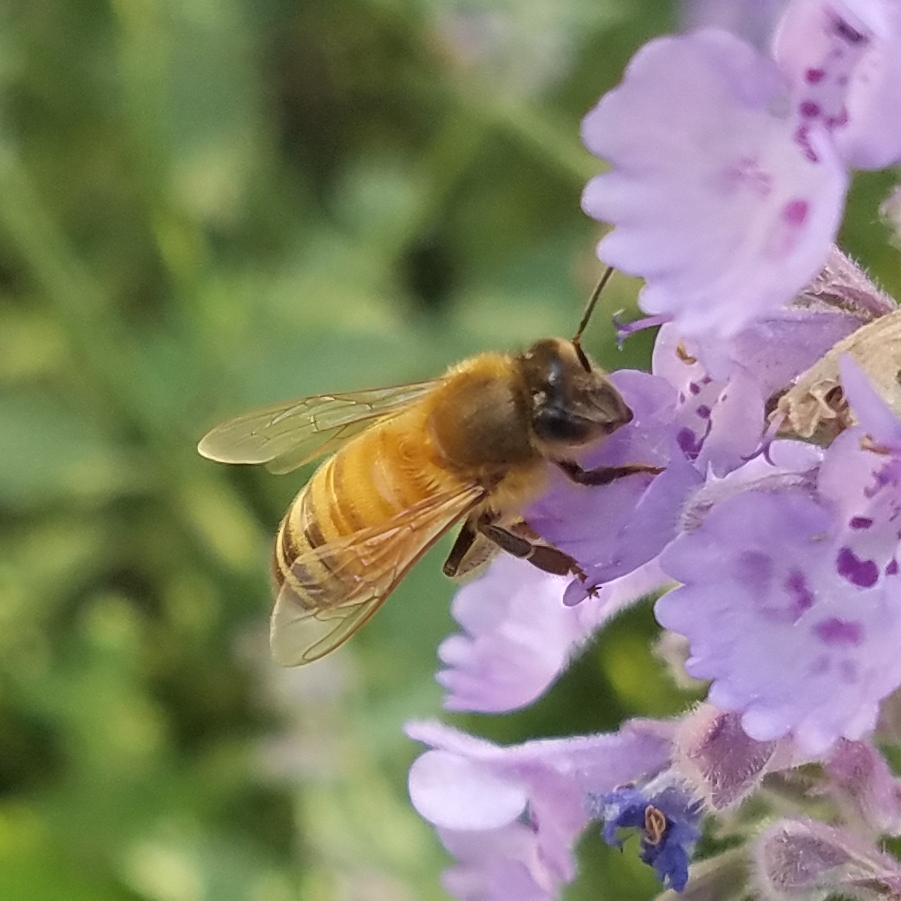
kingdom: Animalia
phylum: Arthropoda
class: Insecta
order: Hymenoptera
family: Apidae
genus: Apis
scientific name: Apis mellifera
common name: Honey bee
